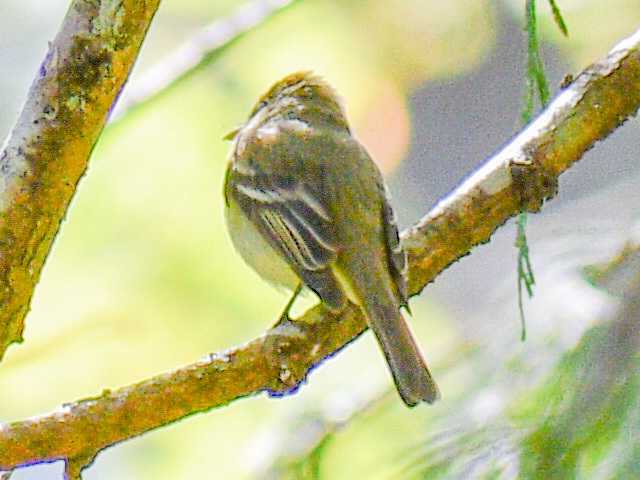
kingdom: Animalia
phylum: Chordata
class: Aves
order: Passeriformes
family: Tyrannidae
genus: Empidonax
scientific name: Empidonax difficilis
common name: Pacific-slope flycatcher
